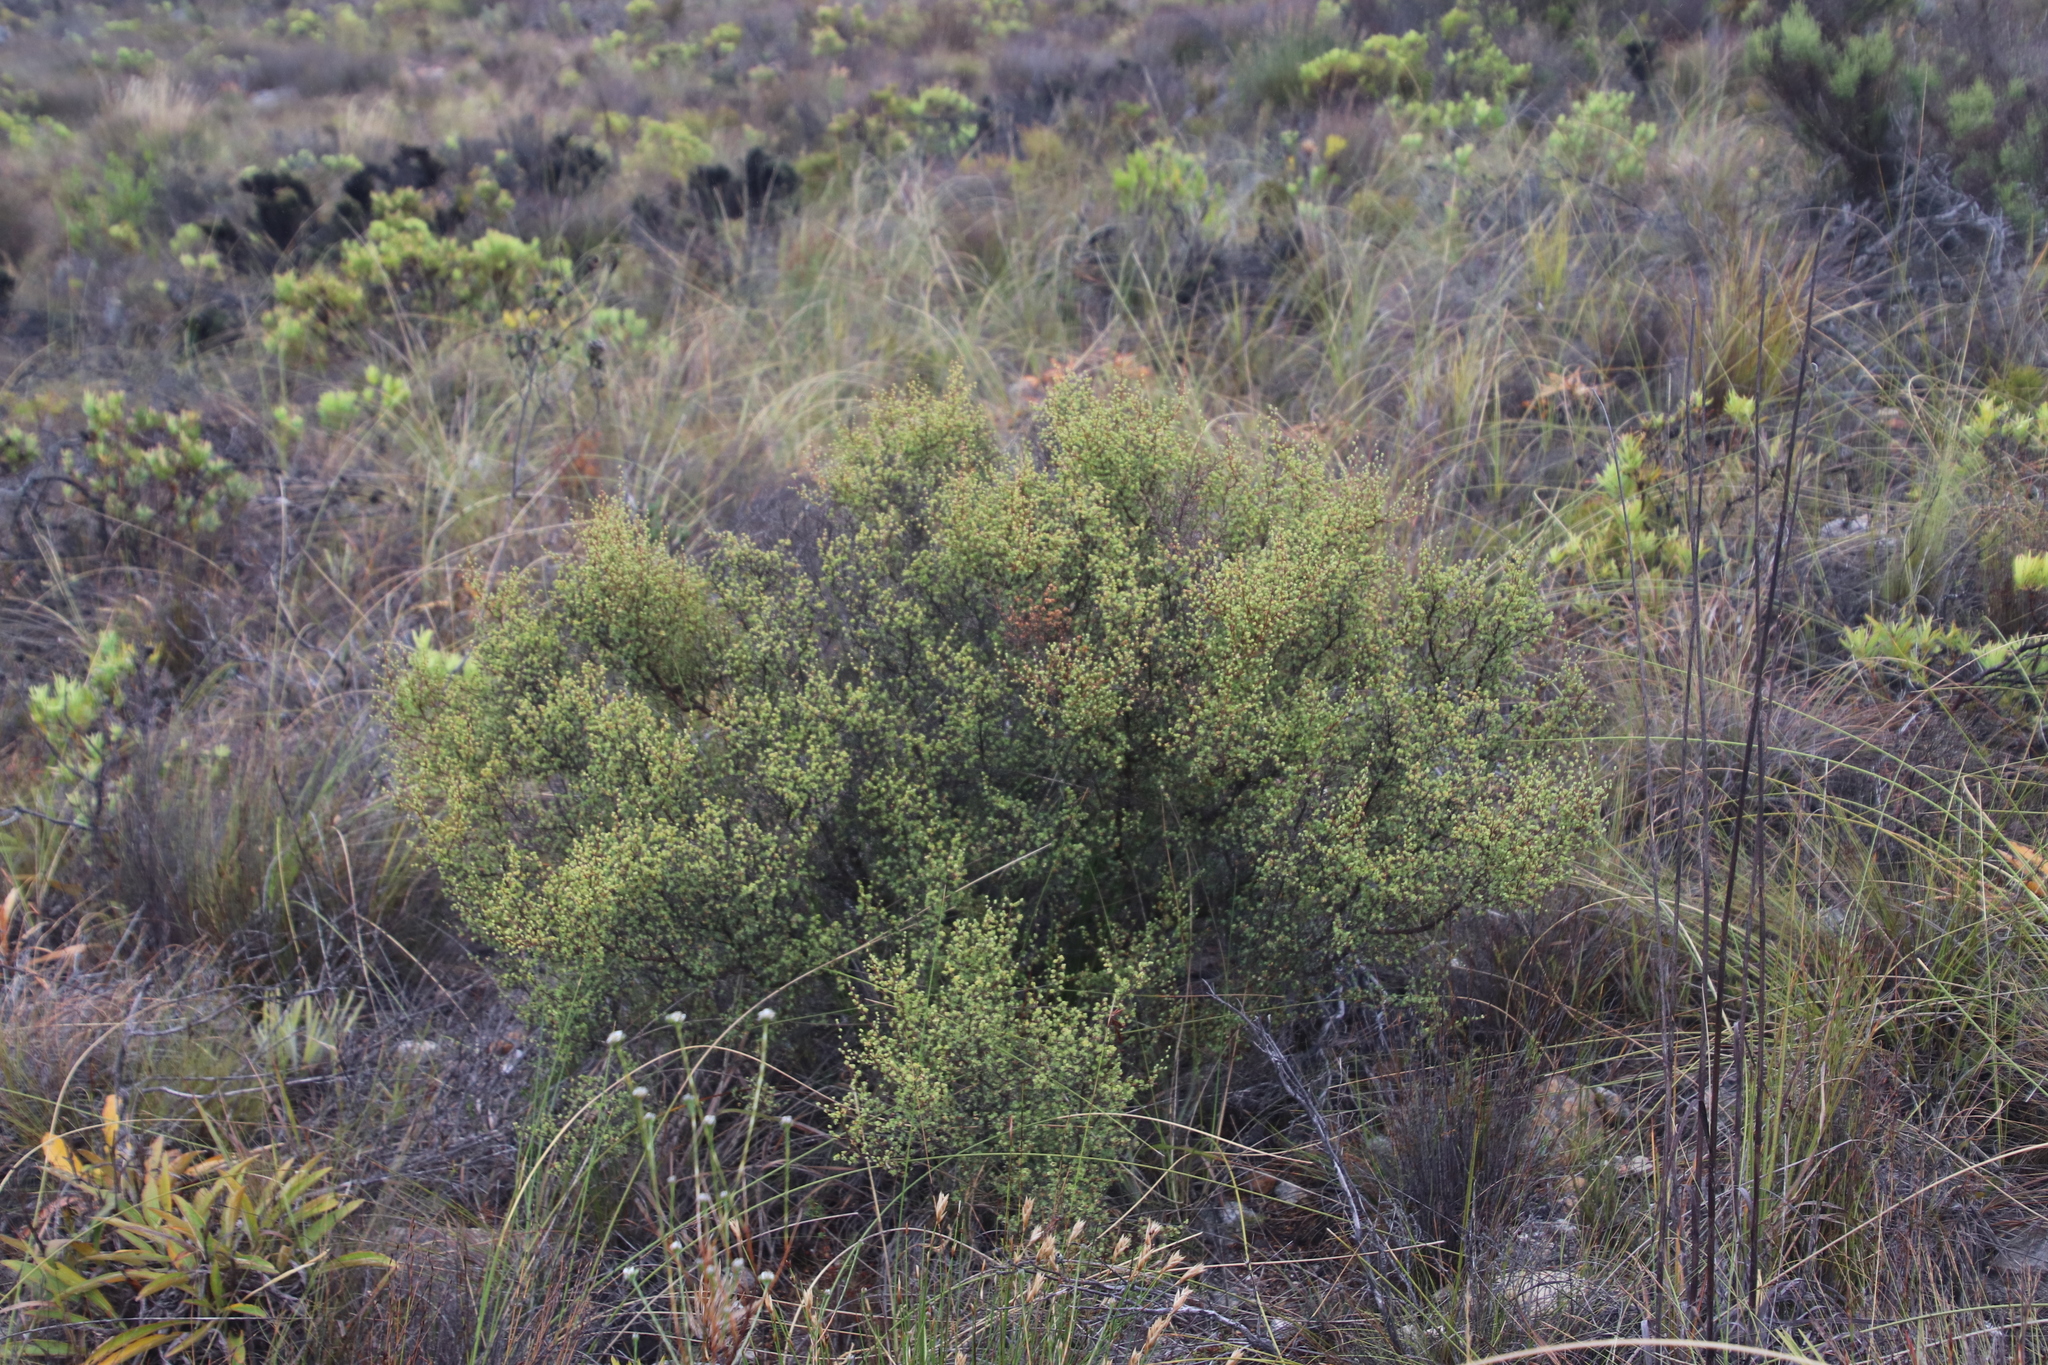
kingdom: Plantae
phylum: Tracheophyta
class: Magnoliopsida
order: Rosales
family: Rosaceae
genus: Cliffortia
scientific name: Cliffortia obovata
